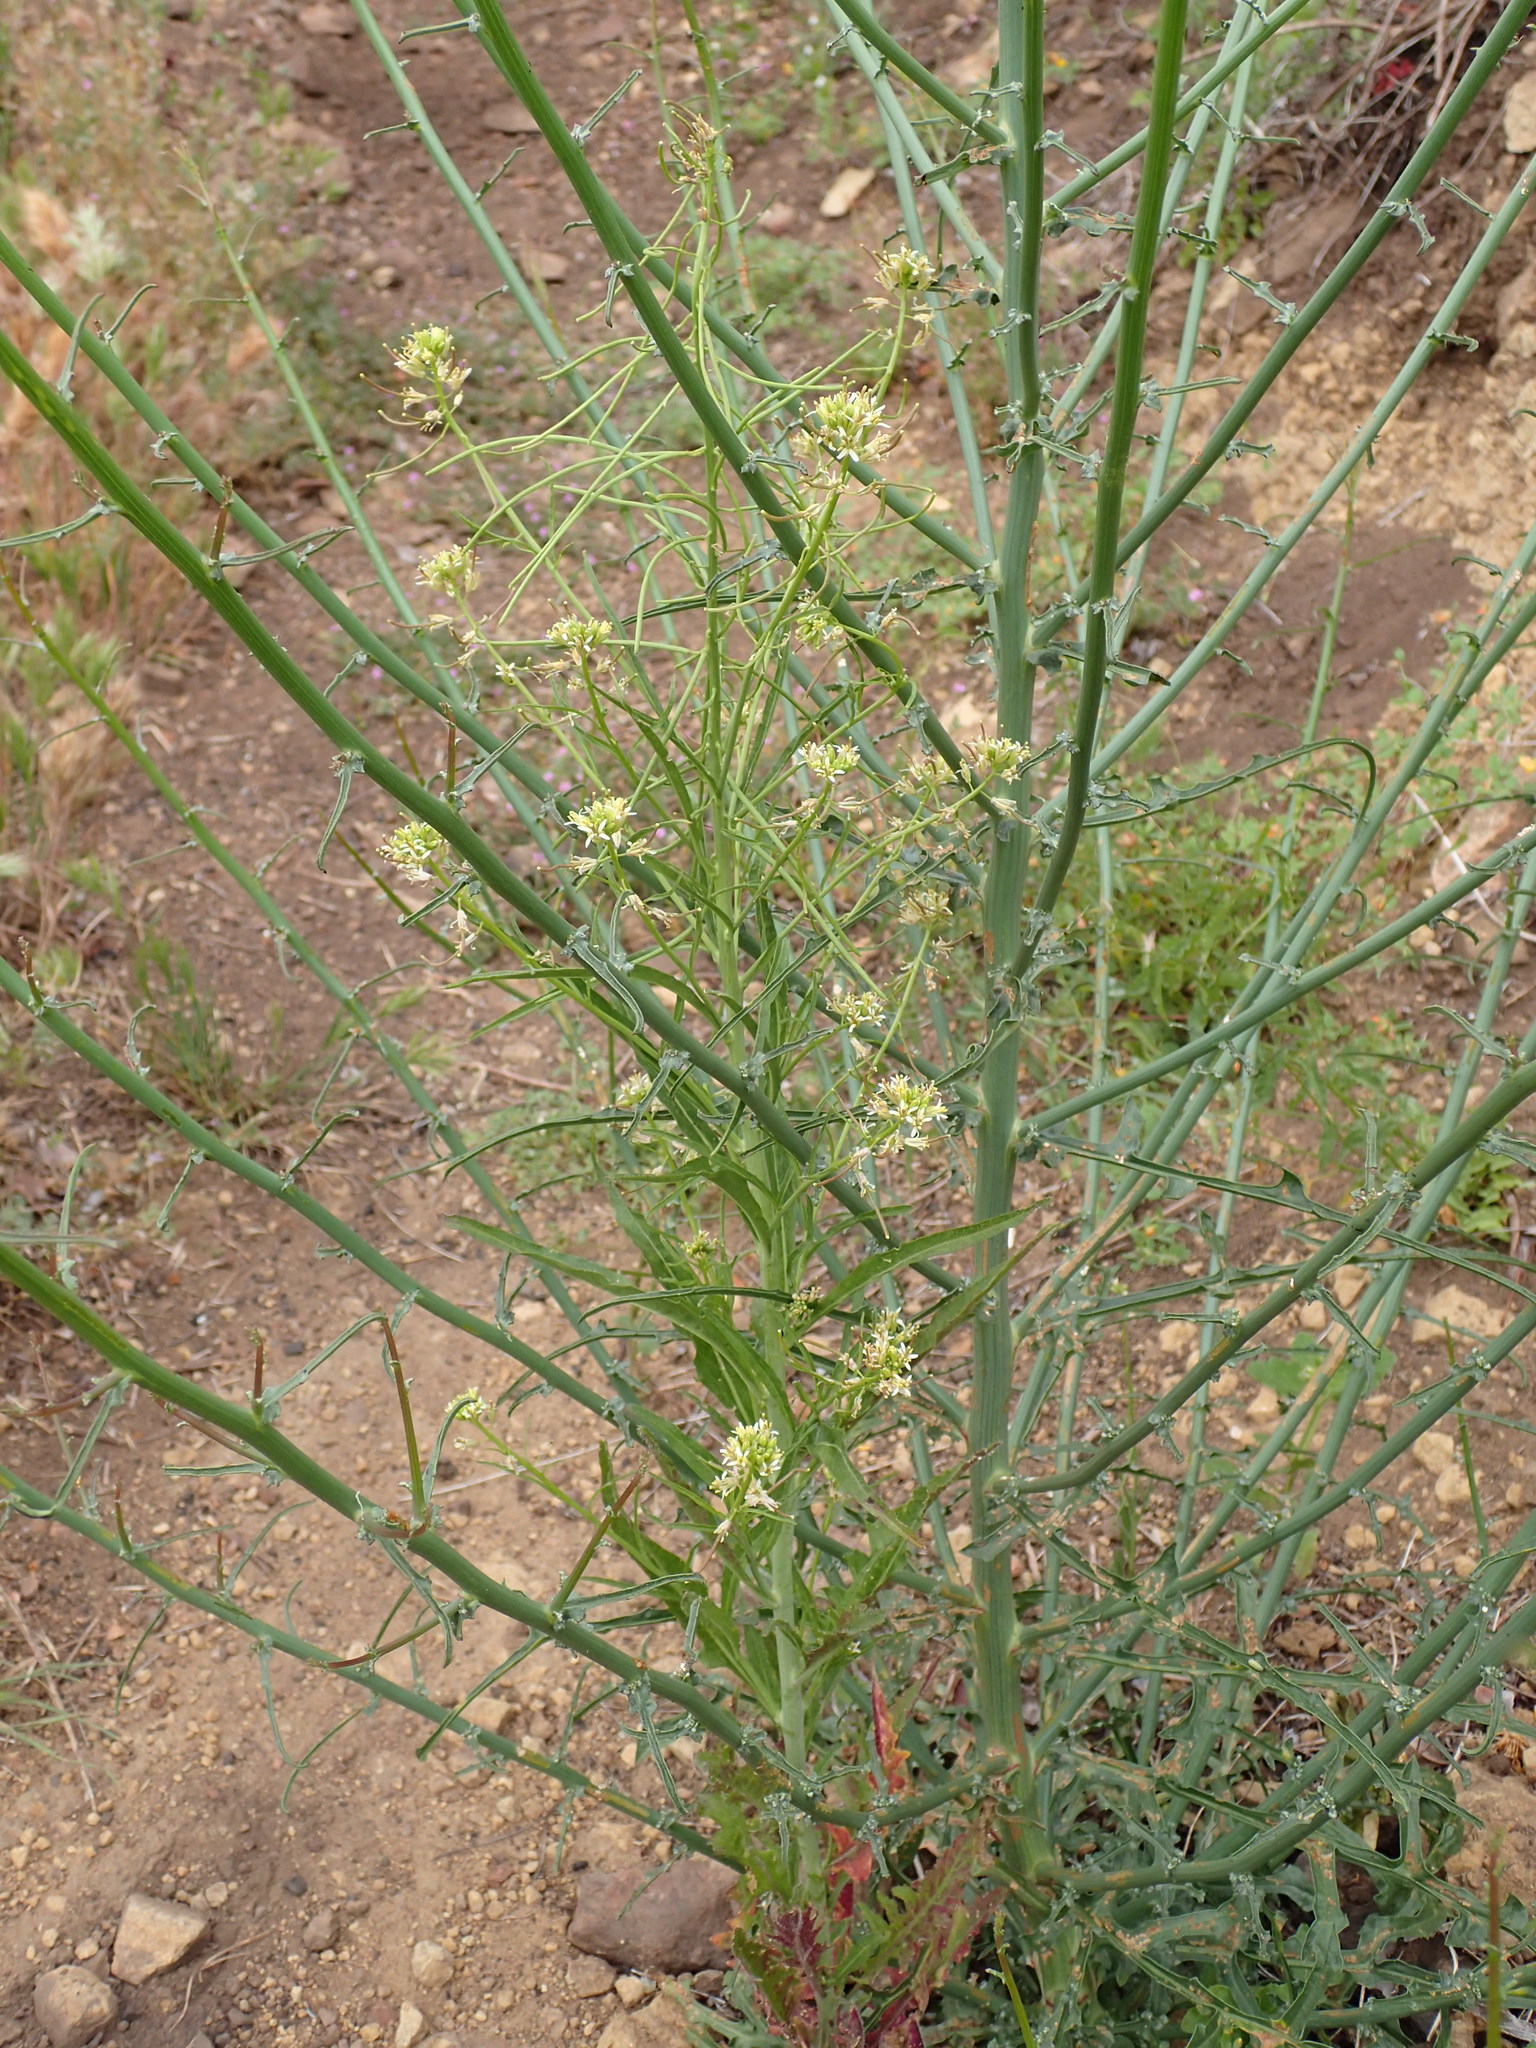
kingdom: Plantae
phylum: Tracheophyta
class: Magnoliopsida
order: Brassicales
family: Brassicaceae
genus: Streptanthus
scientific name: Streptanthus lasiophyllus
